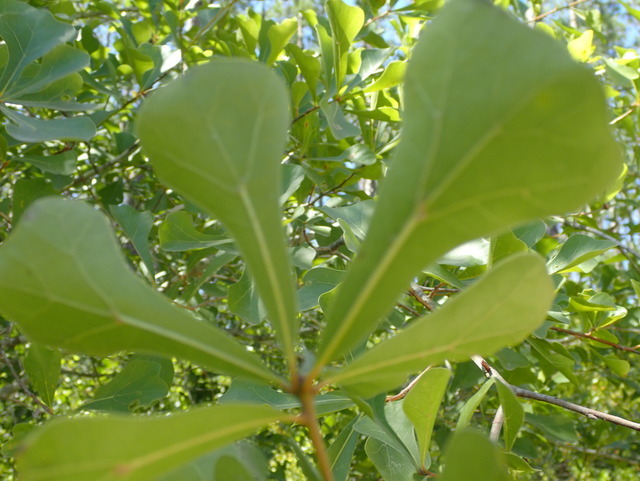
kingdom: Plantae
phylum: Tracheophyta
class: Magnoliopsida
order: Fagales
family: Fagaceae
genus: Quercus
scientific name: Quercus nigra
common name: Water oak
